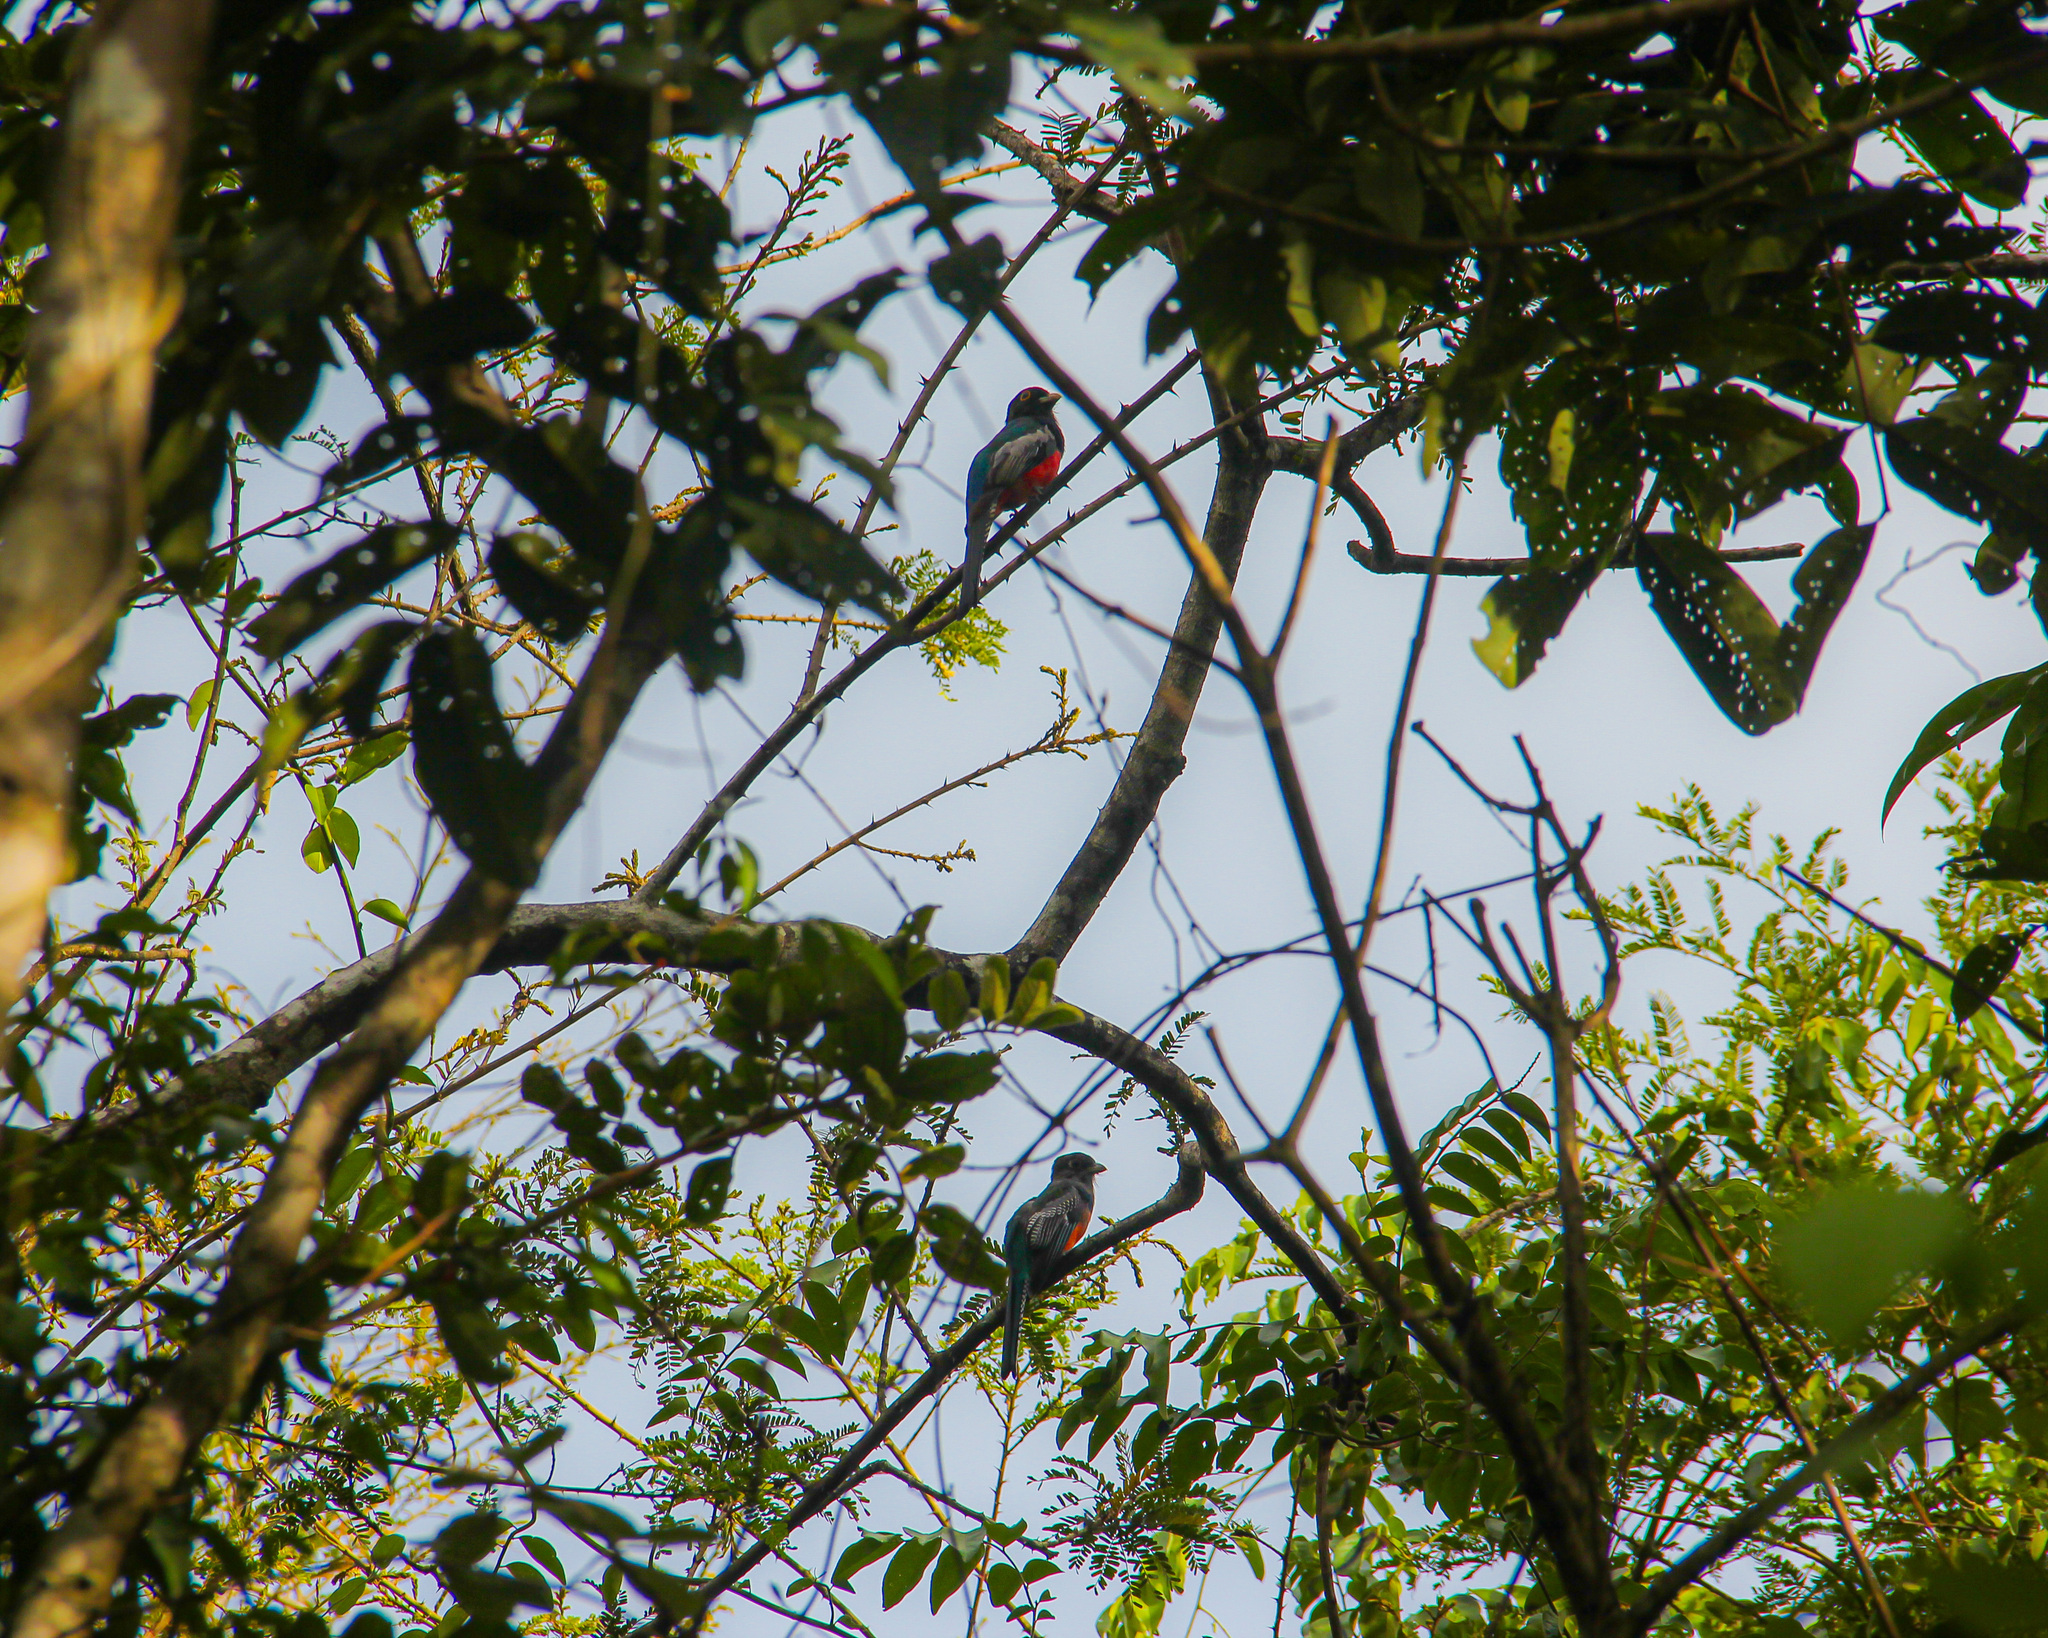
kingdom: Animalia
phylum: Chordata
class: Aves
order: Trogoniformes
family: Trogonidae
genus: Trogon
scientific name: Trogon curucui
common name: Blue-crowned trogon
